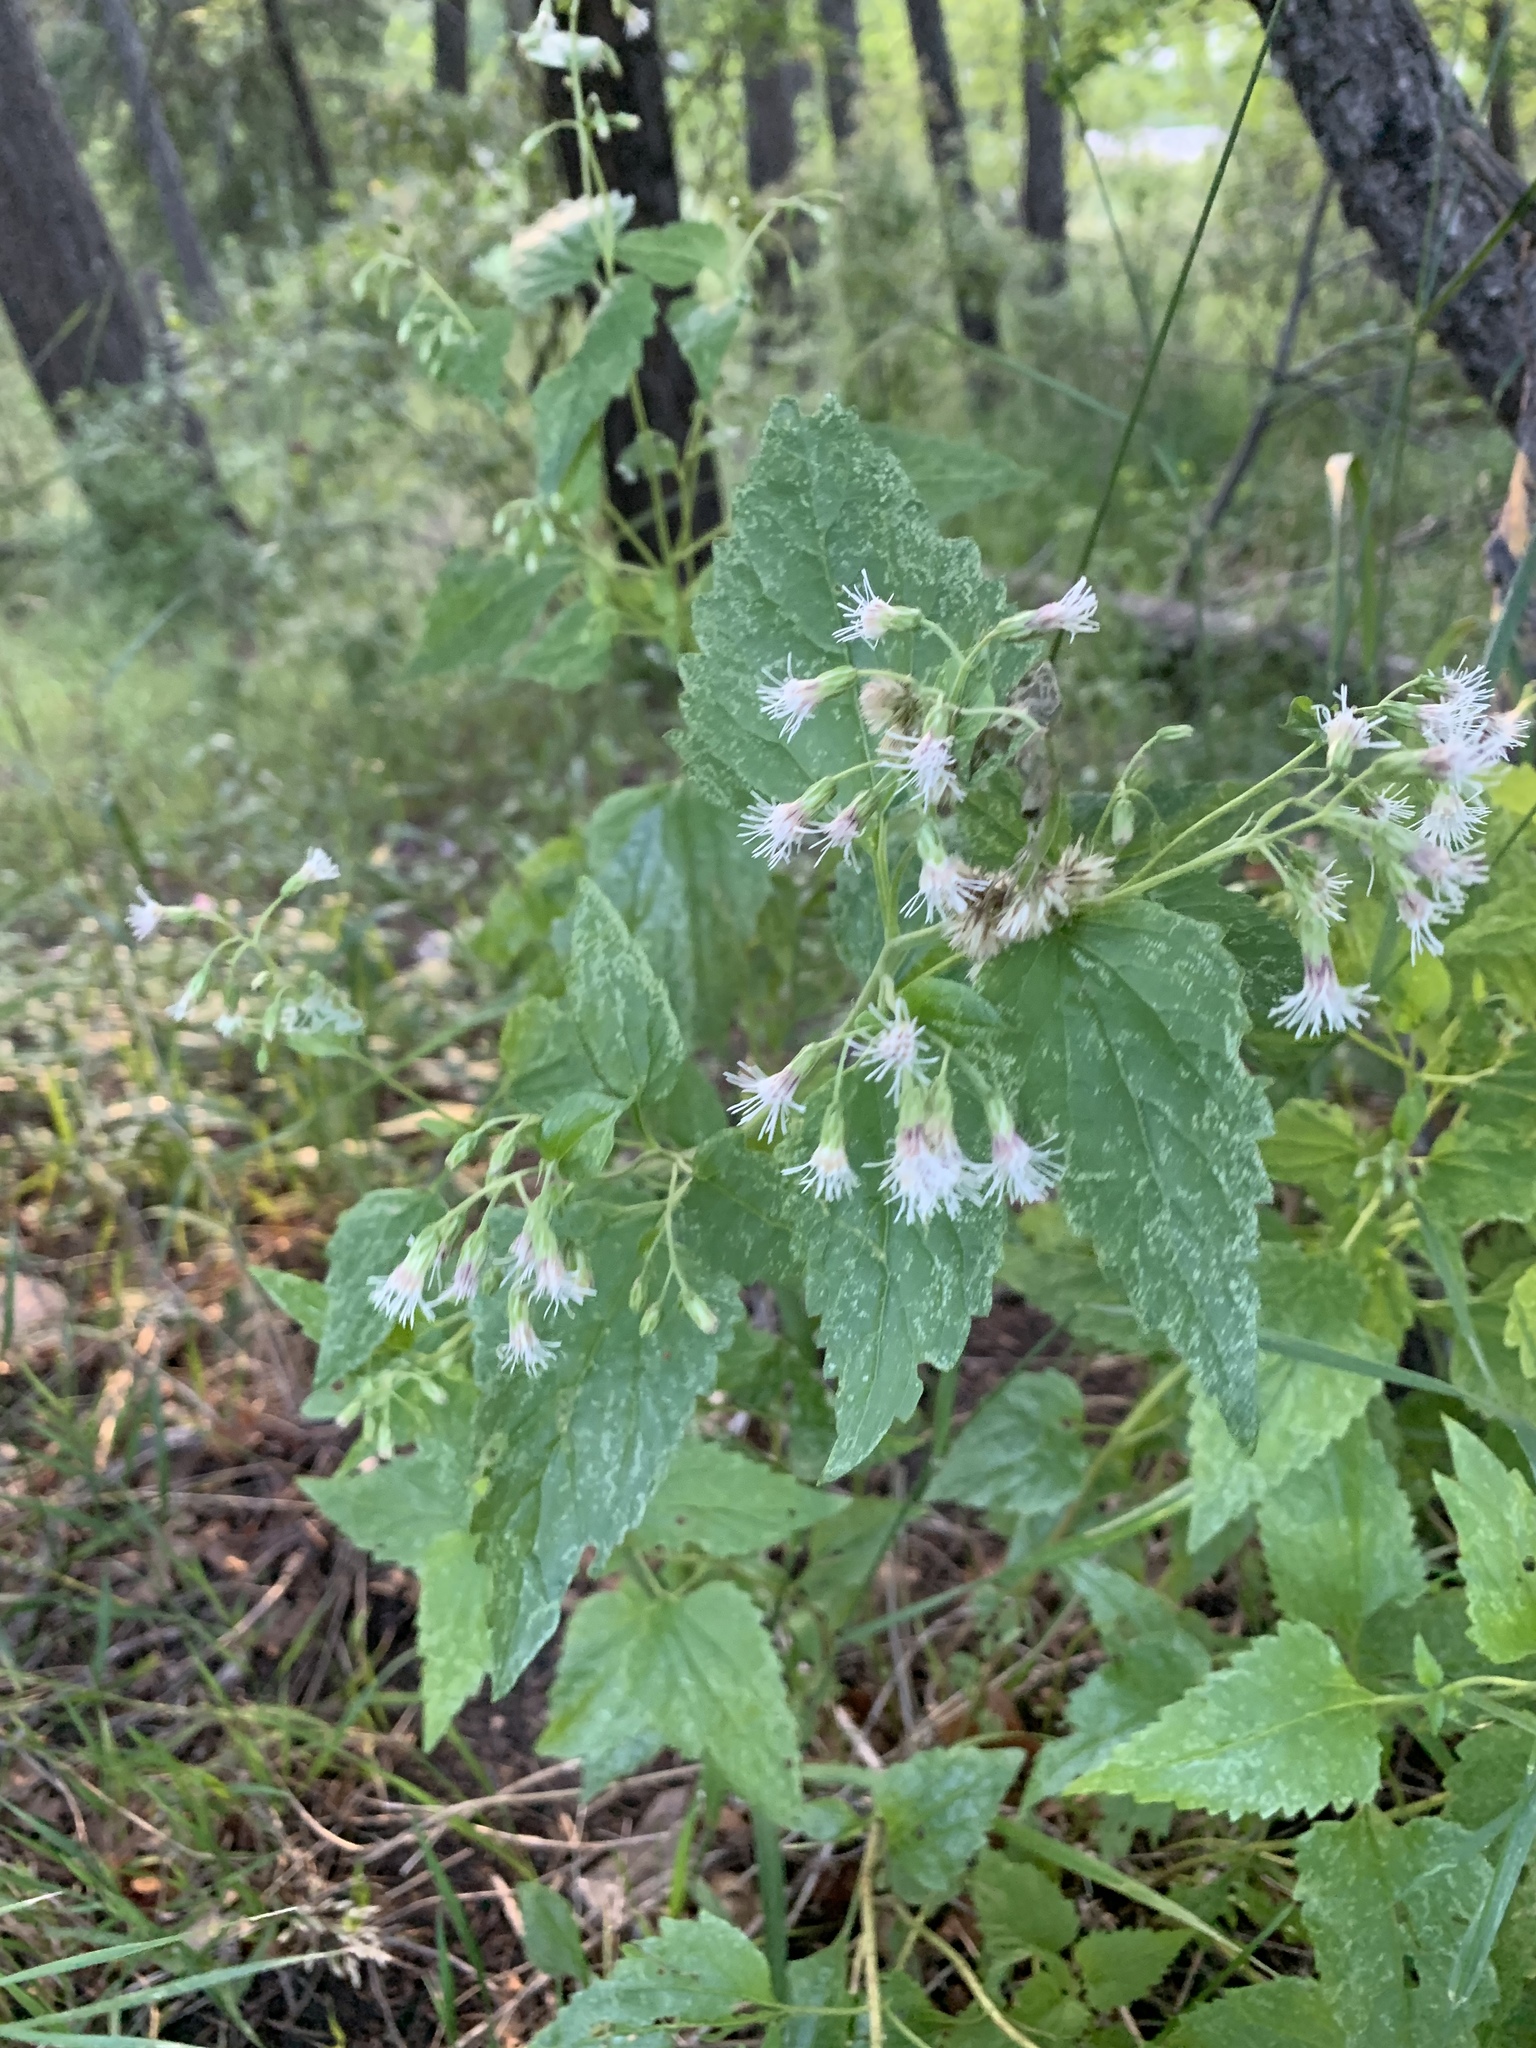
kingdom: Plantae
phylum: Tracheophyta
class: Magnoliopsida
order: Asterales
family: Asteraceae
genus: Brickelliastrum
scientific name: Brickelliastrum fendleri
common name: Fendler's-brickellbush
